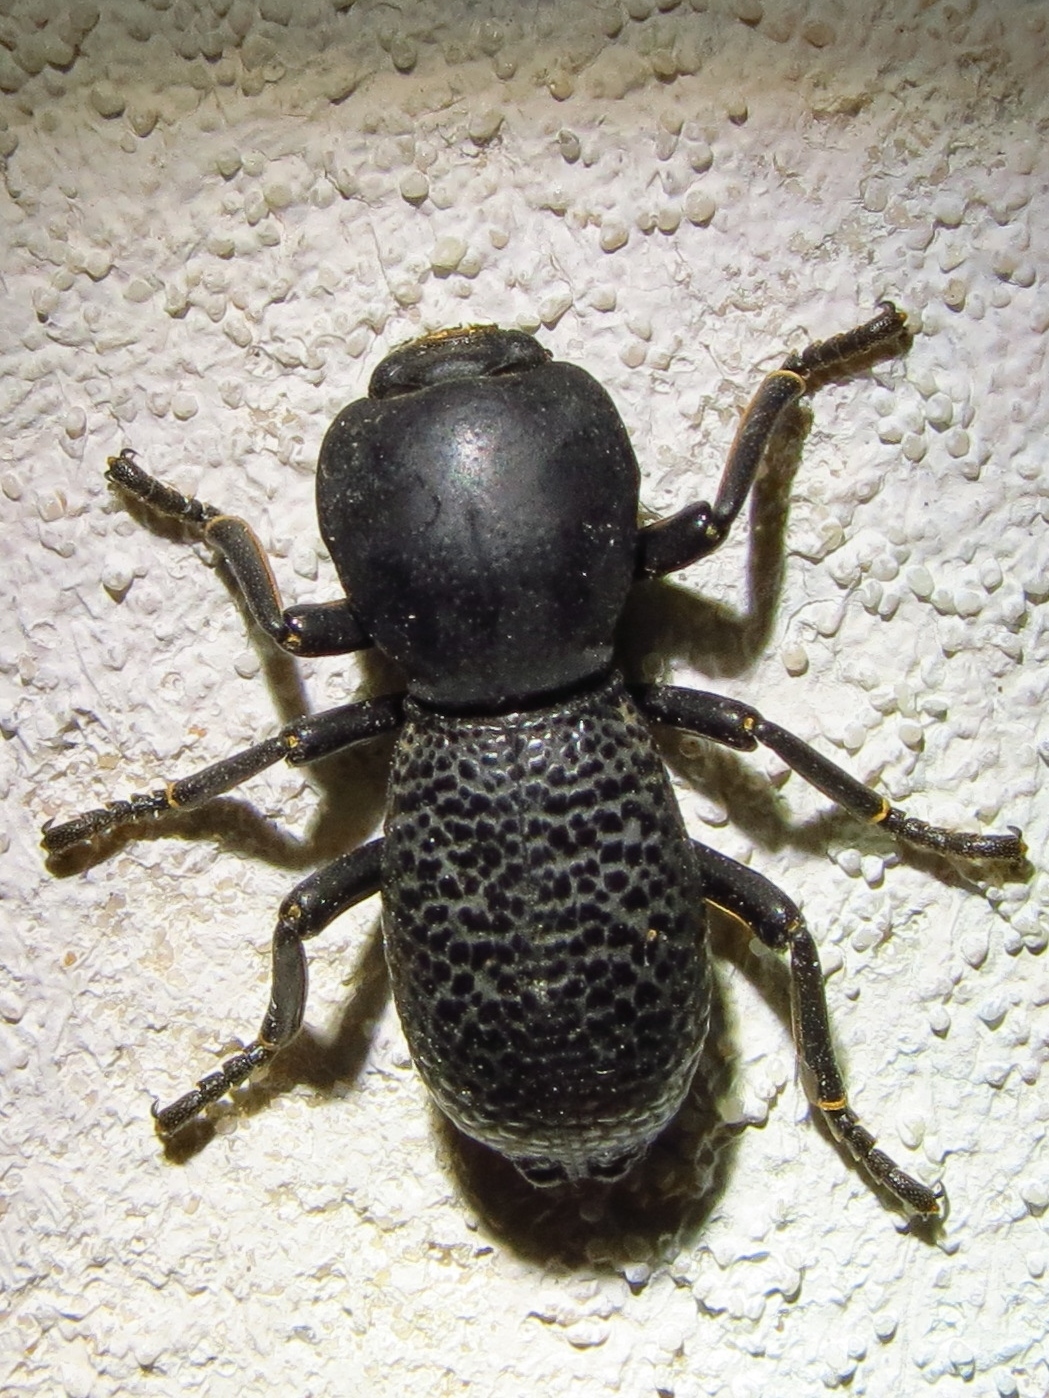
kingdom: Animalia
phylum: Arthropoda
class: Insecta
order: Coleoptera
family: Zopheridae
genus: Zopherus
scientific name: Zopherus concolor
